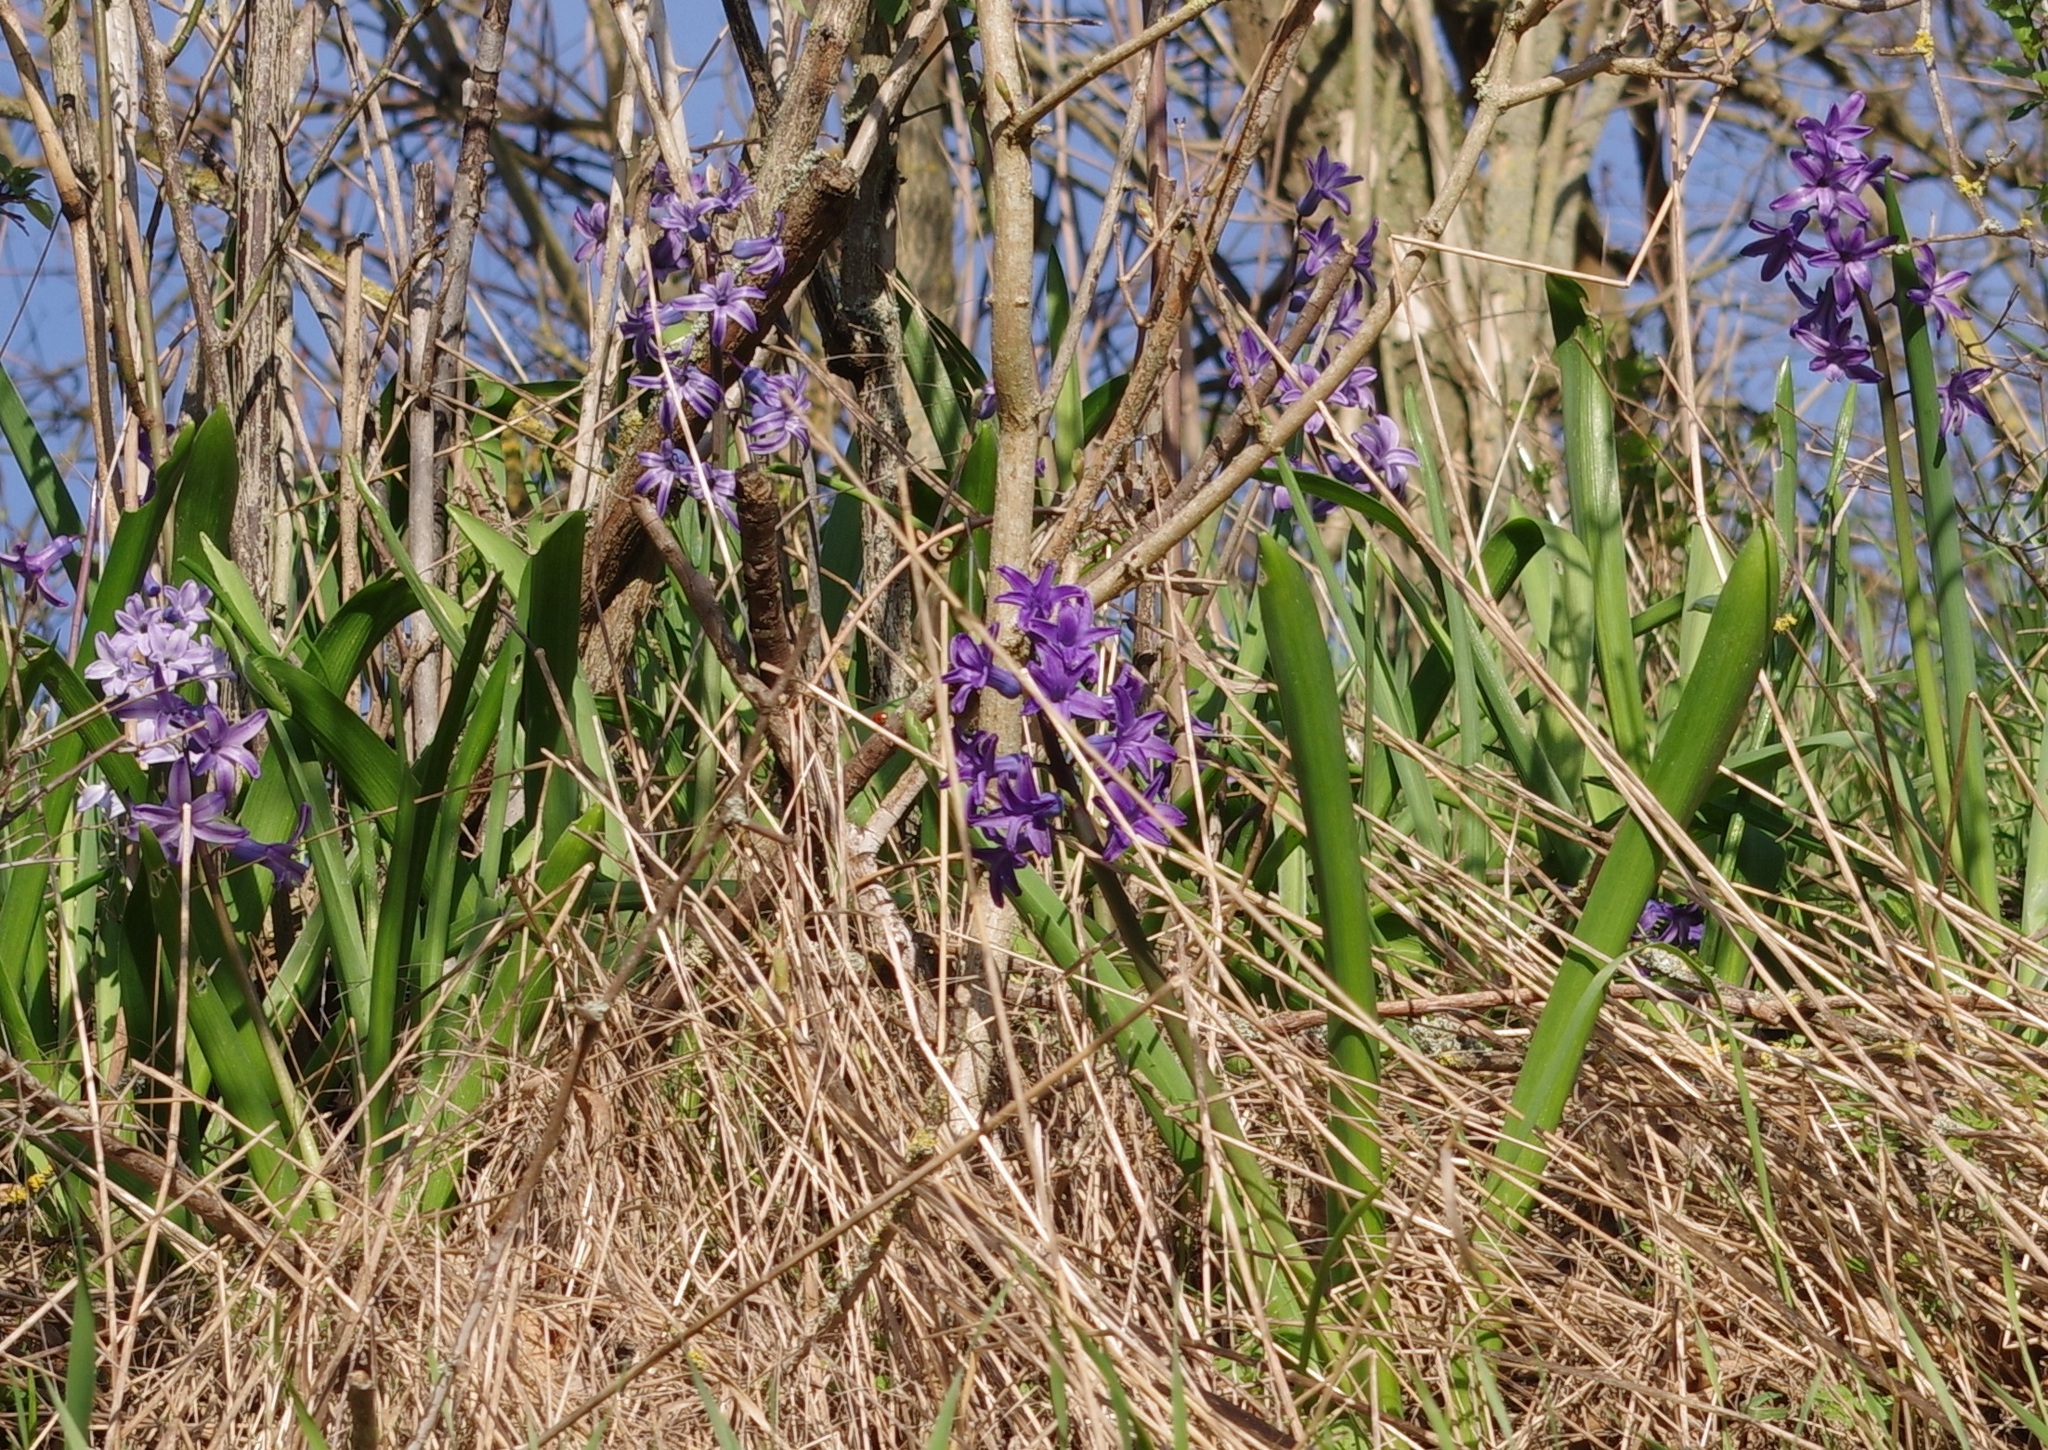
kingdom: Plantae
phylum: Tracheophyta
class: Liliopsida
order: Asparagales
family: Asparagaceae
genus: Hyacinthus
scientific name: Hyacinthus orientalis
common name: Hyacinth
